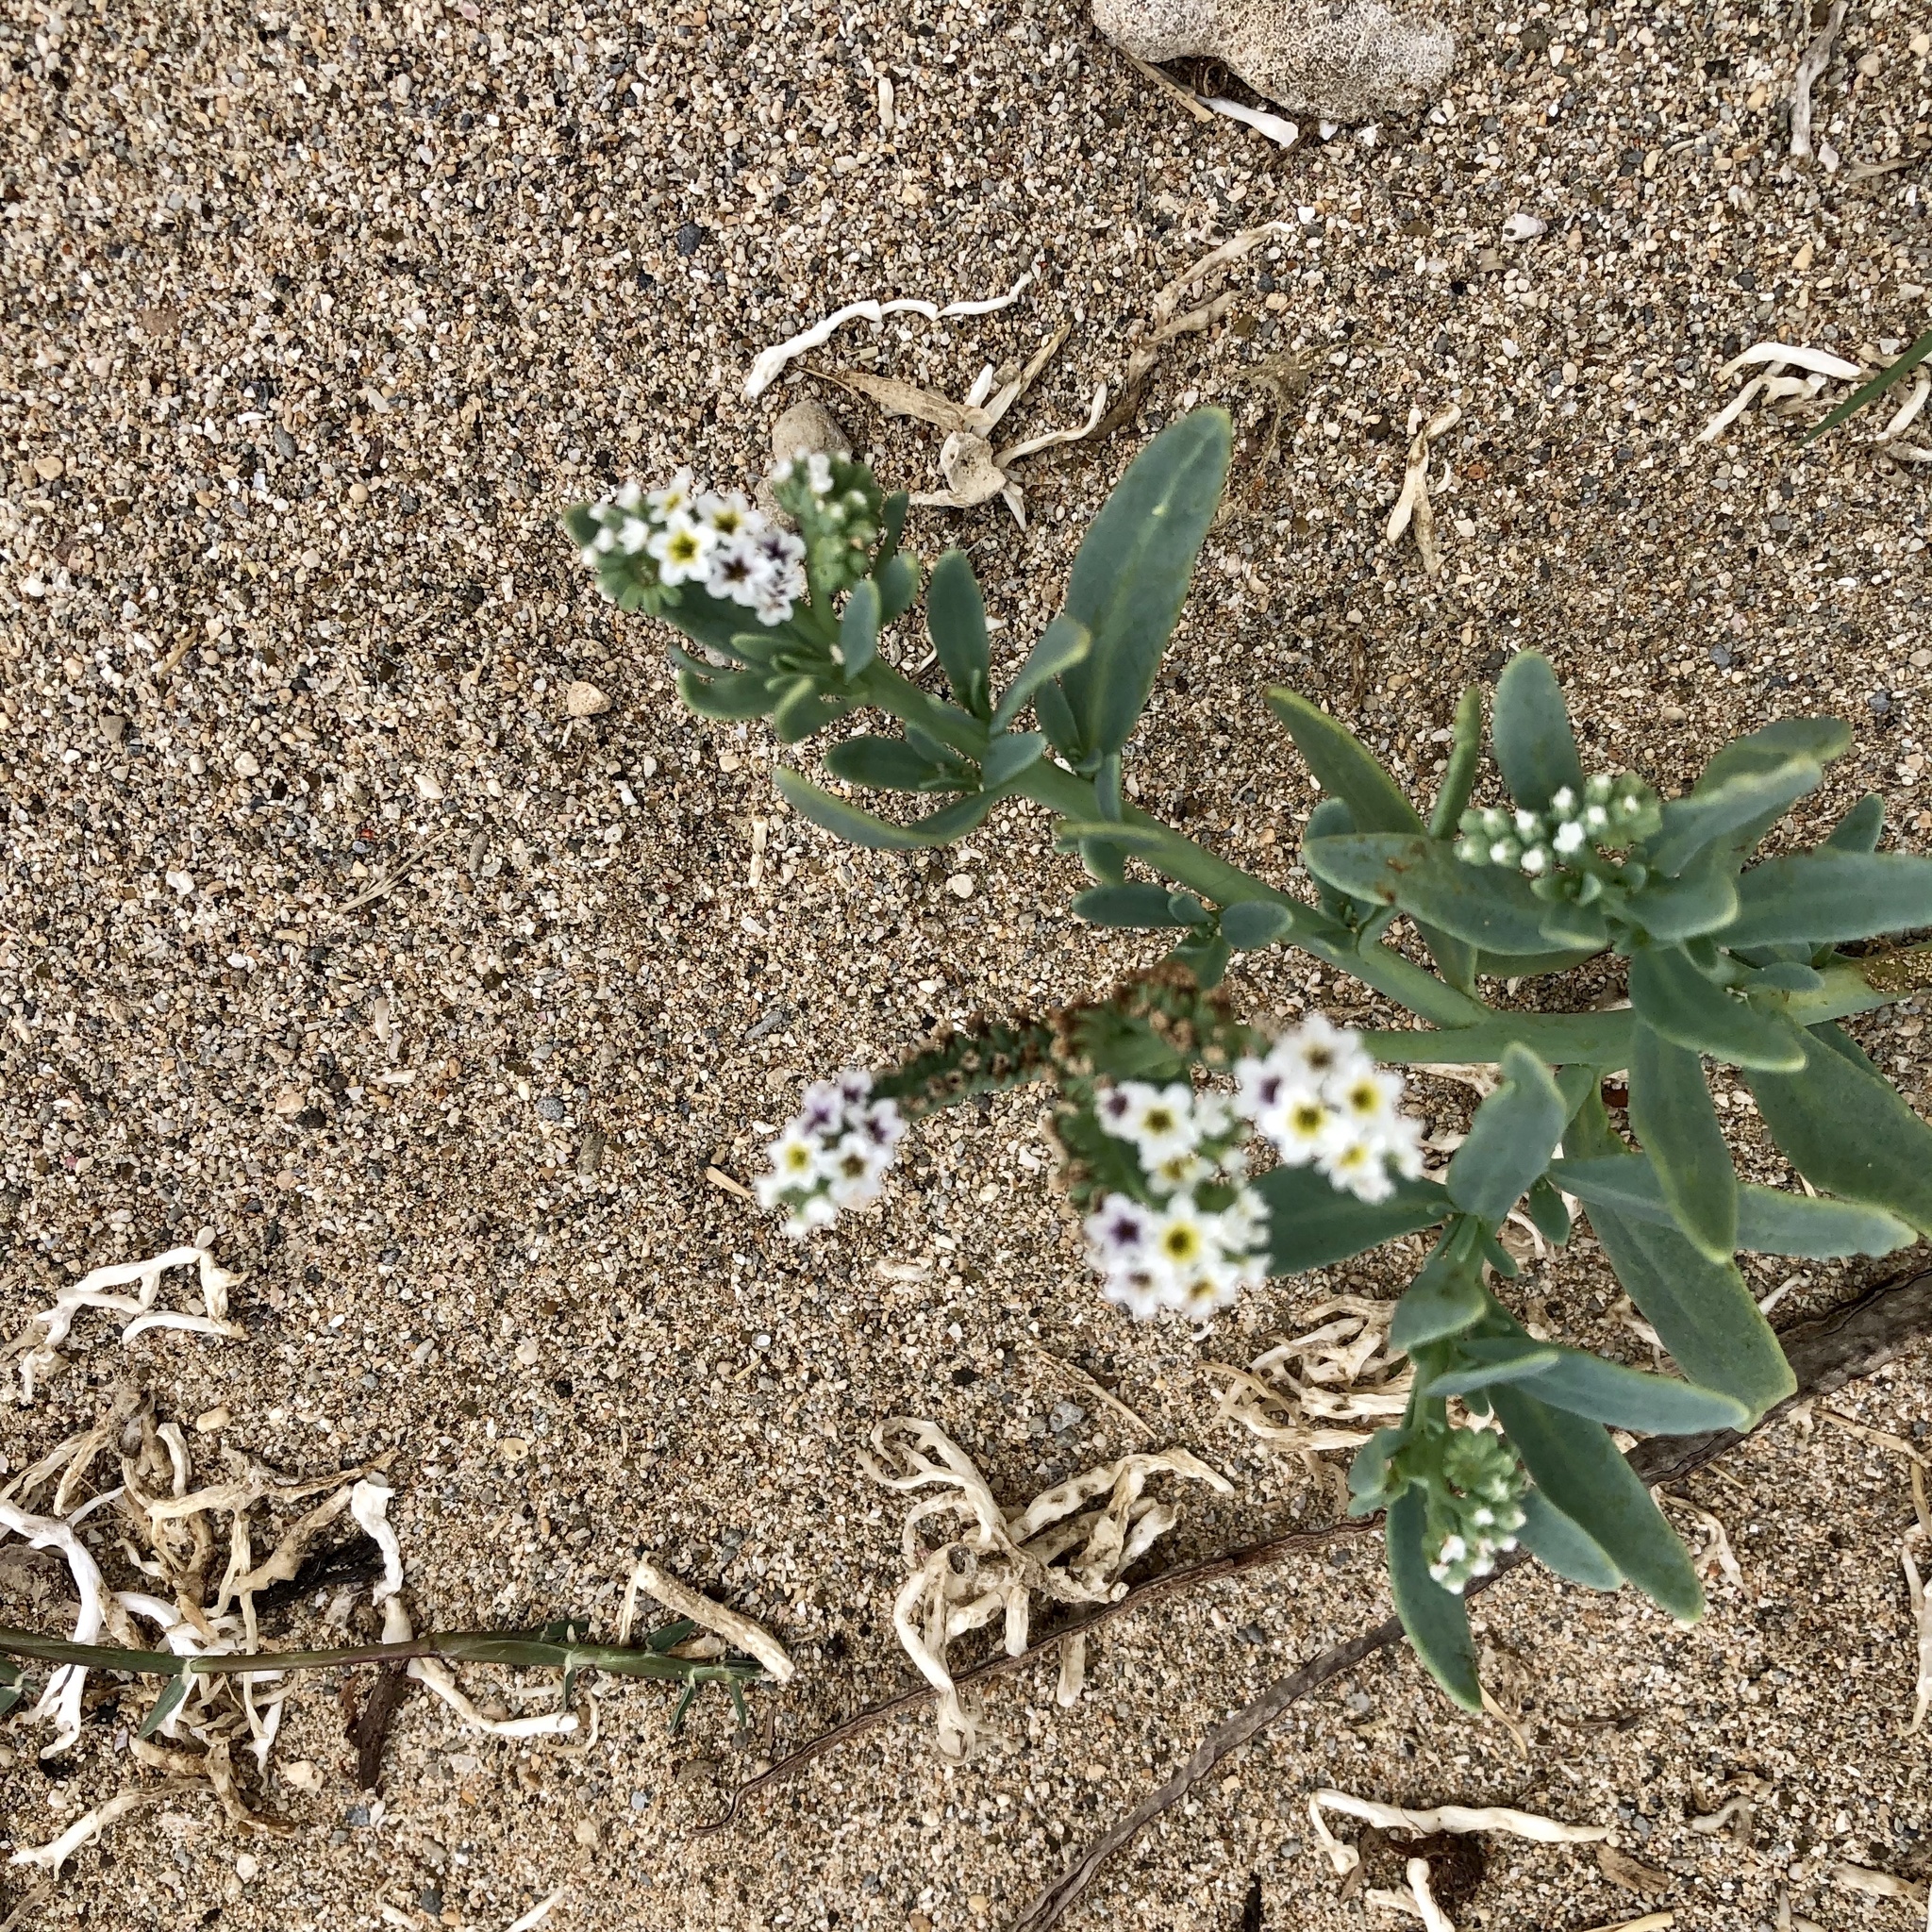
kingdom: Plantae
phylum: Tracheophyta
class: Magnoliopsida
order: Boraginales
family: Heliotropiaceae
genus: Heliotropium
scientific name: Heliotropium curassavicum
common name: Seaside heliotrope
